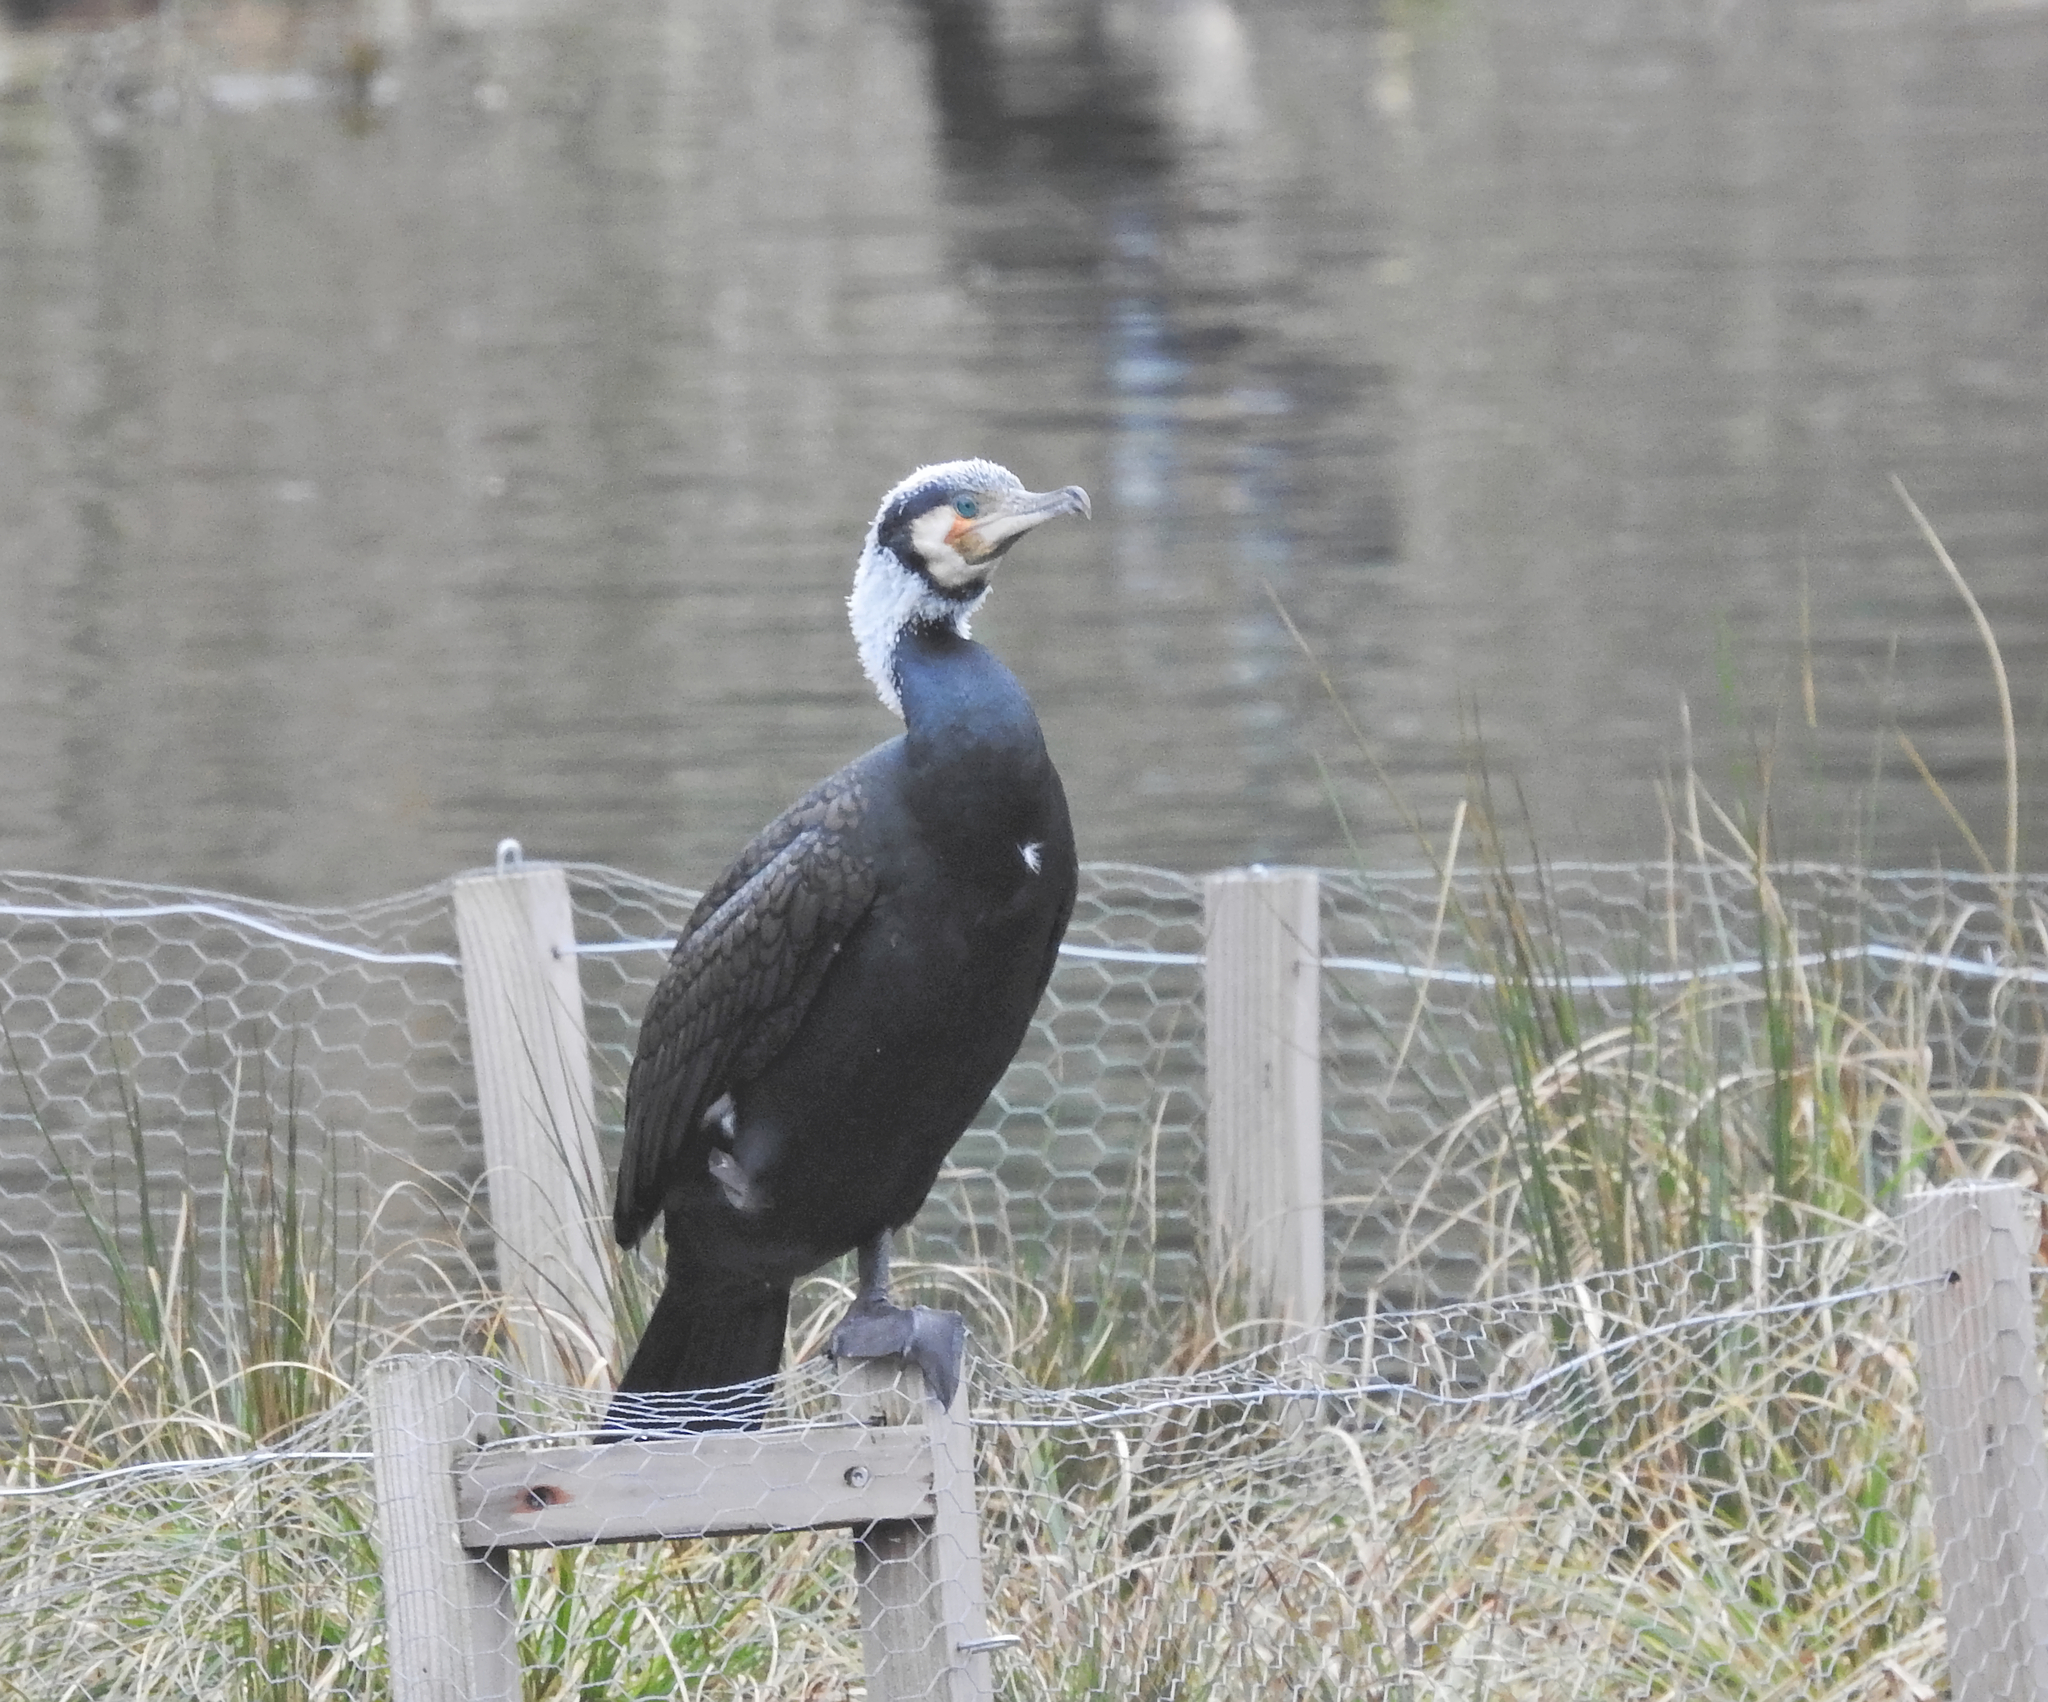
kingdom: Animalia
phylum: Chordata
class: Aves
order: Suliformes
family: Phalacrocoracidae
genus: Phalacrocorax
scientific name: Phalacrocorax carbo
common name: Great cormorant
